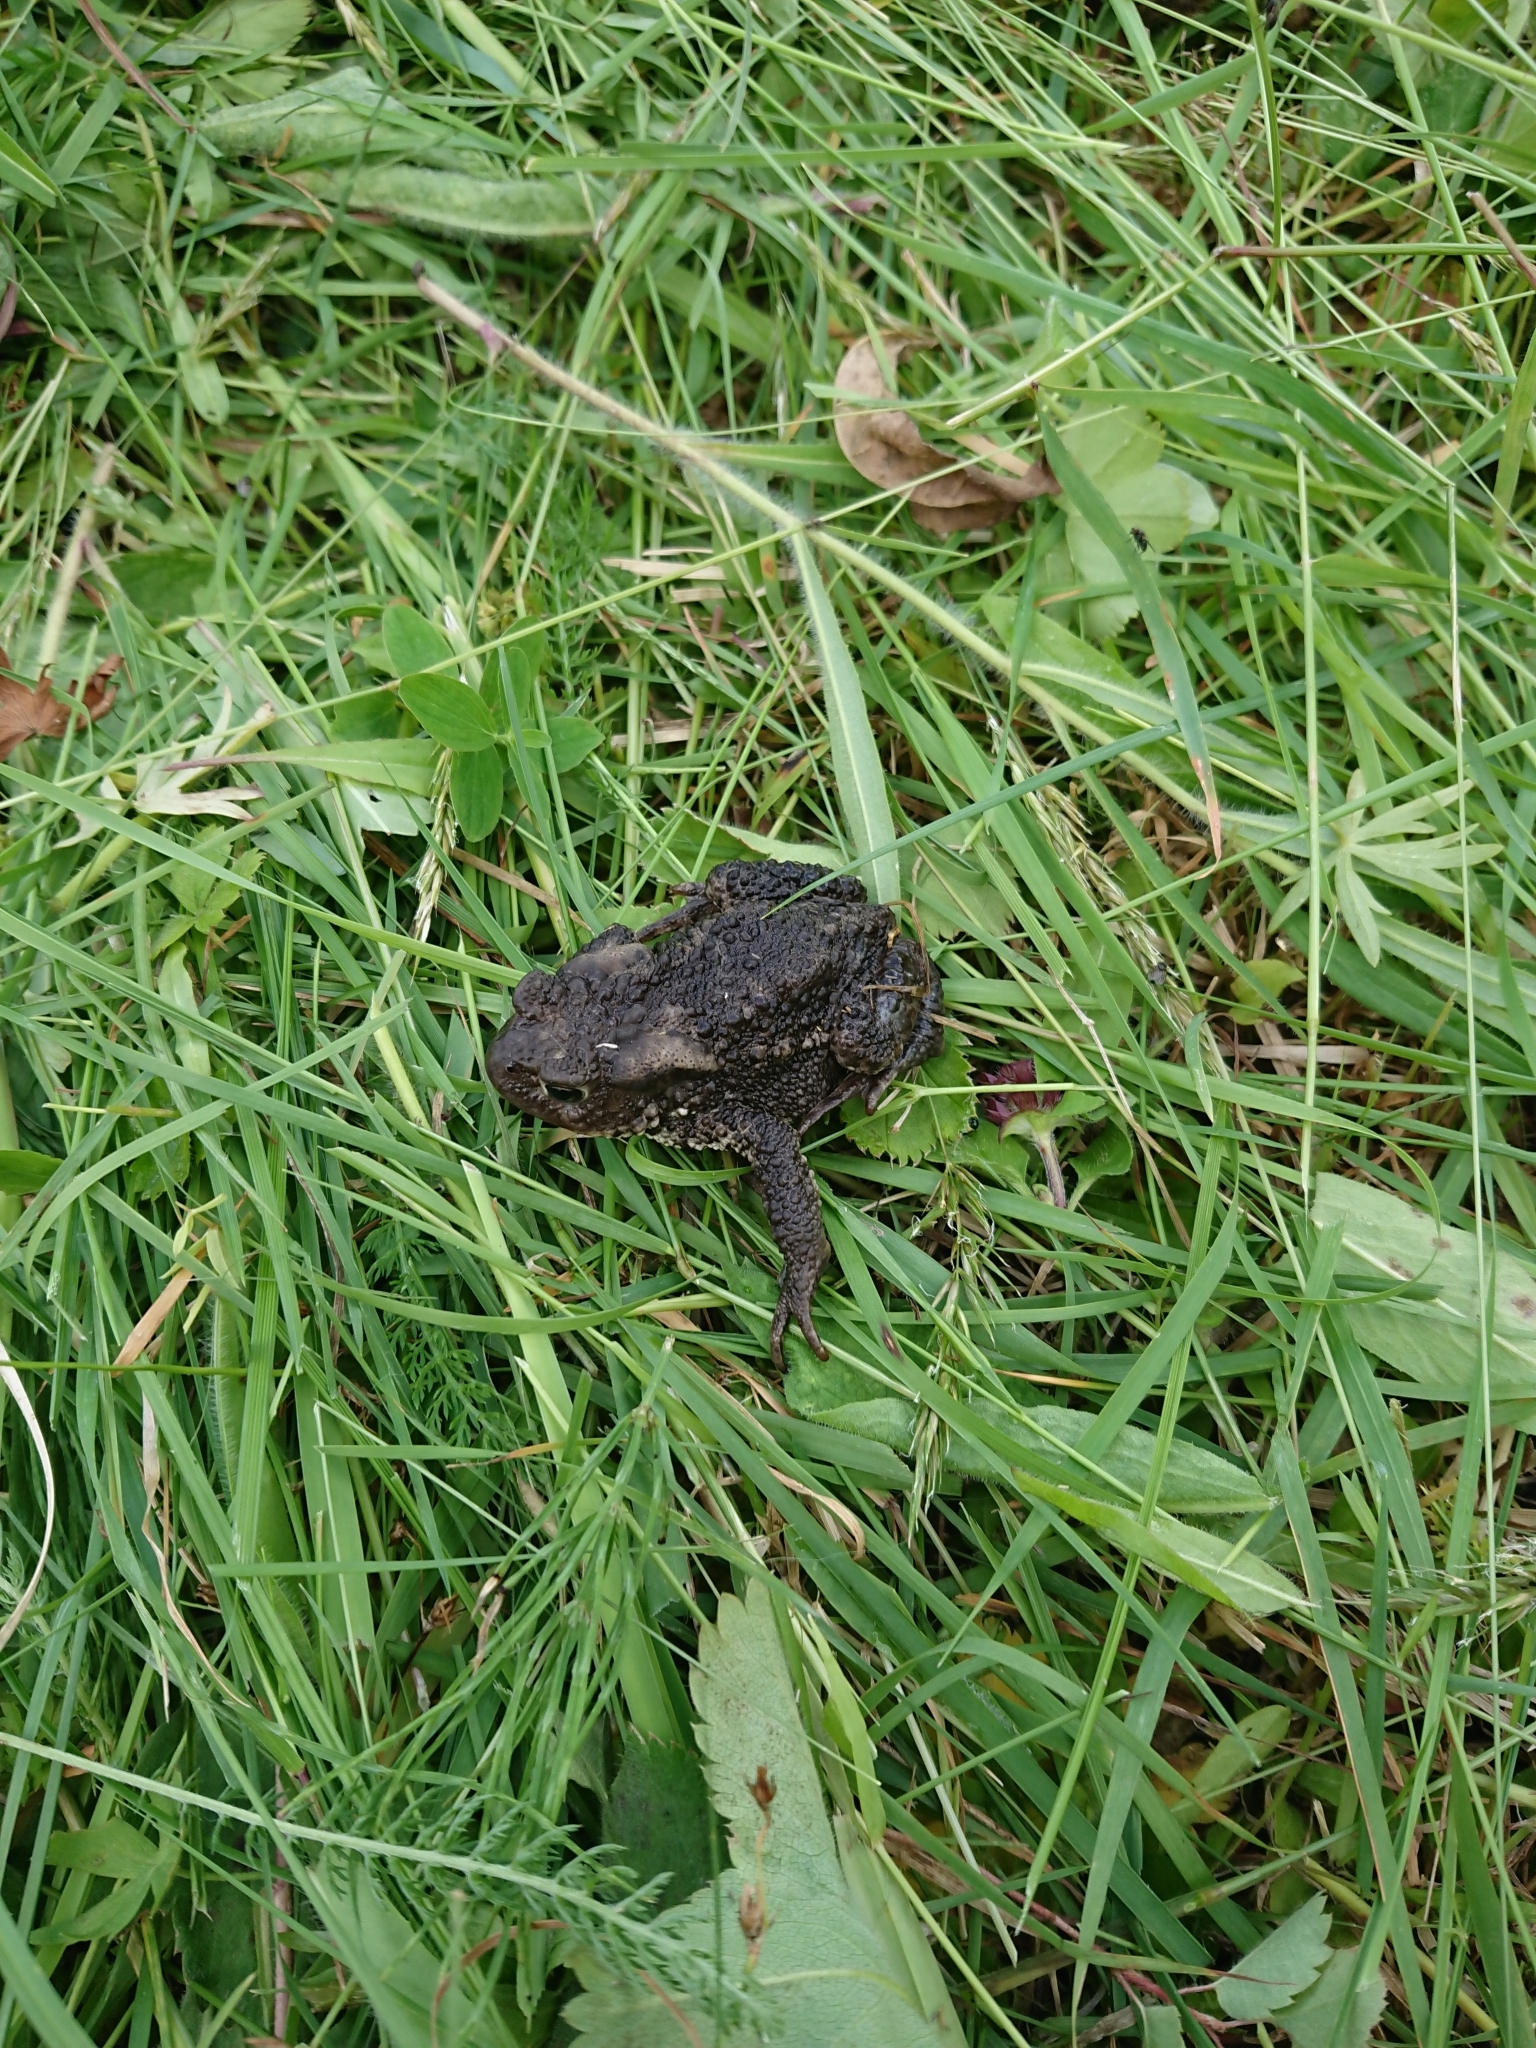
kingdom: Animalia
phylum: Chordata
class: Amphibia
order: Anura
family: Bufonidae
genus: Bufo
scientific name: Bufo bufo
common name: Common toad
